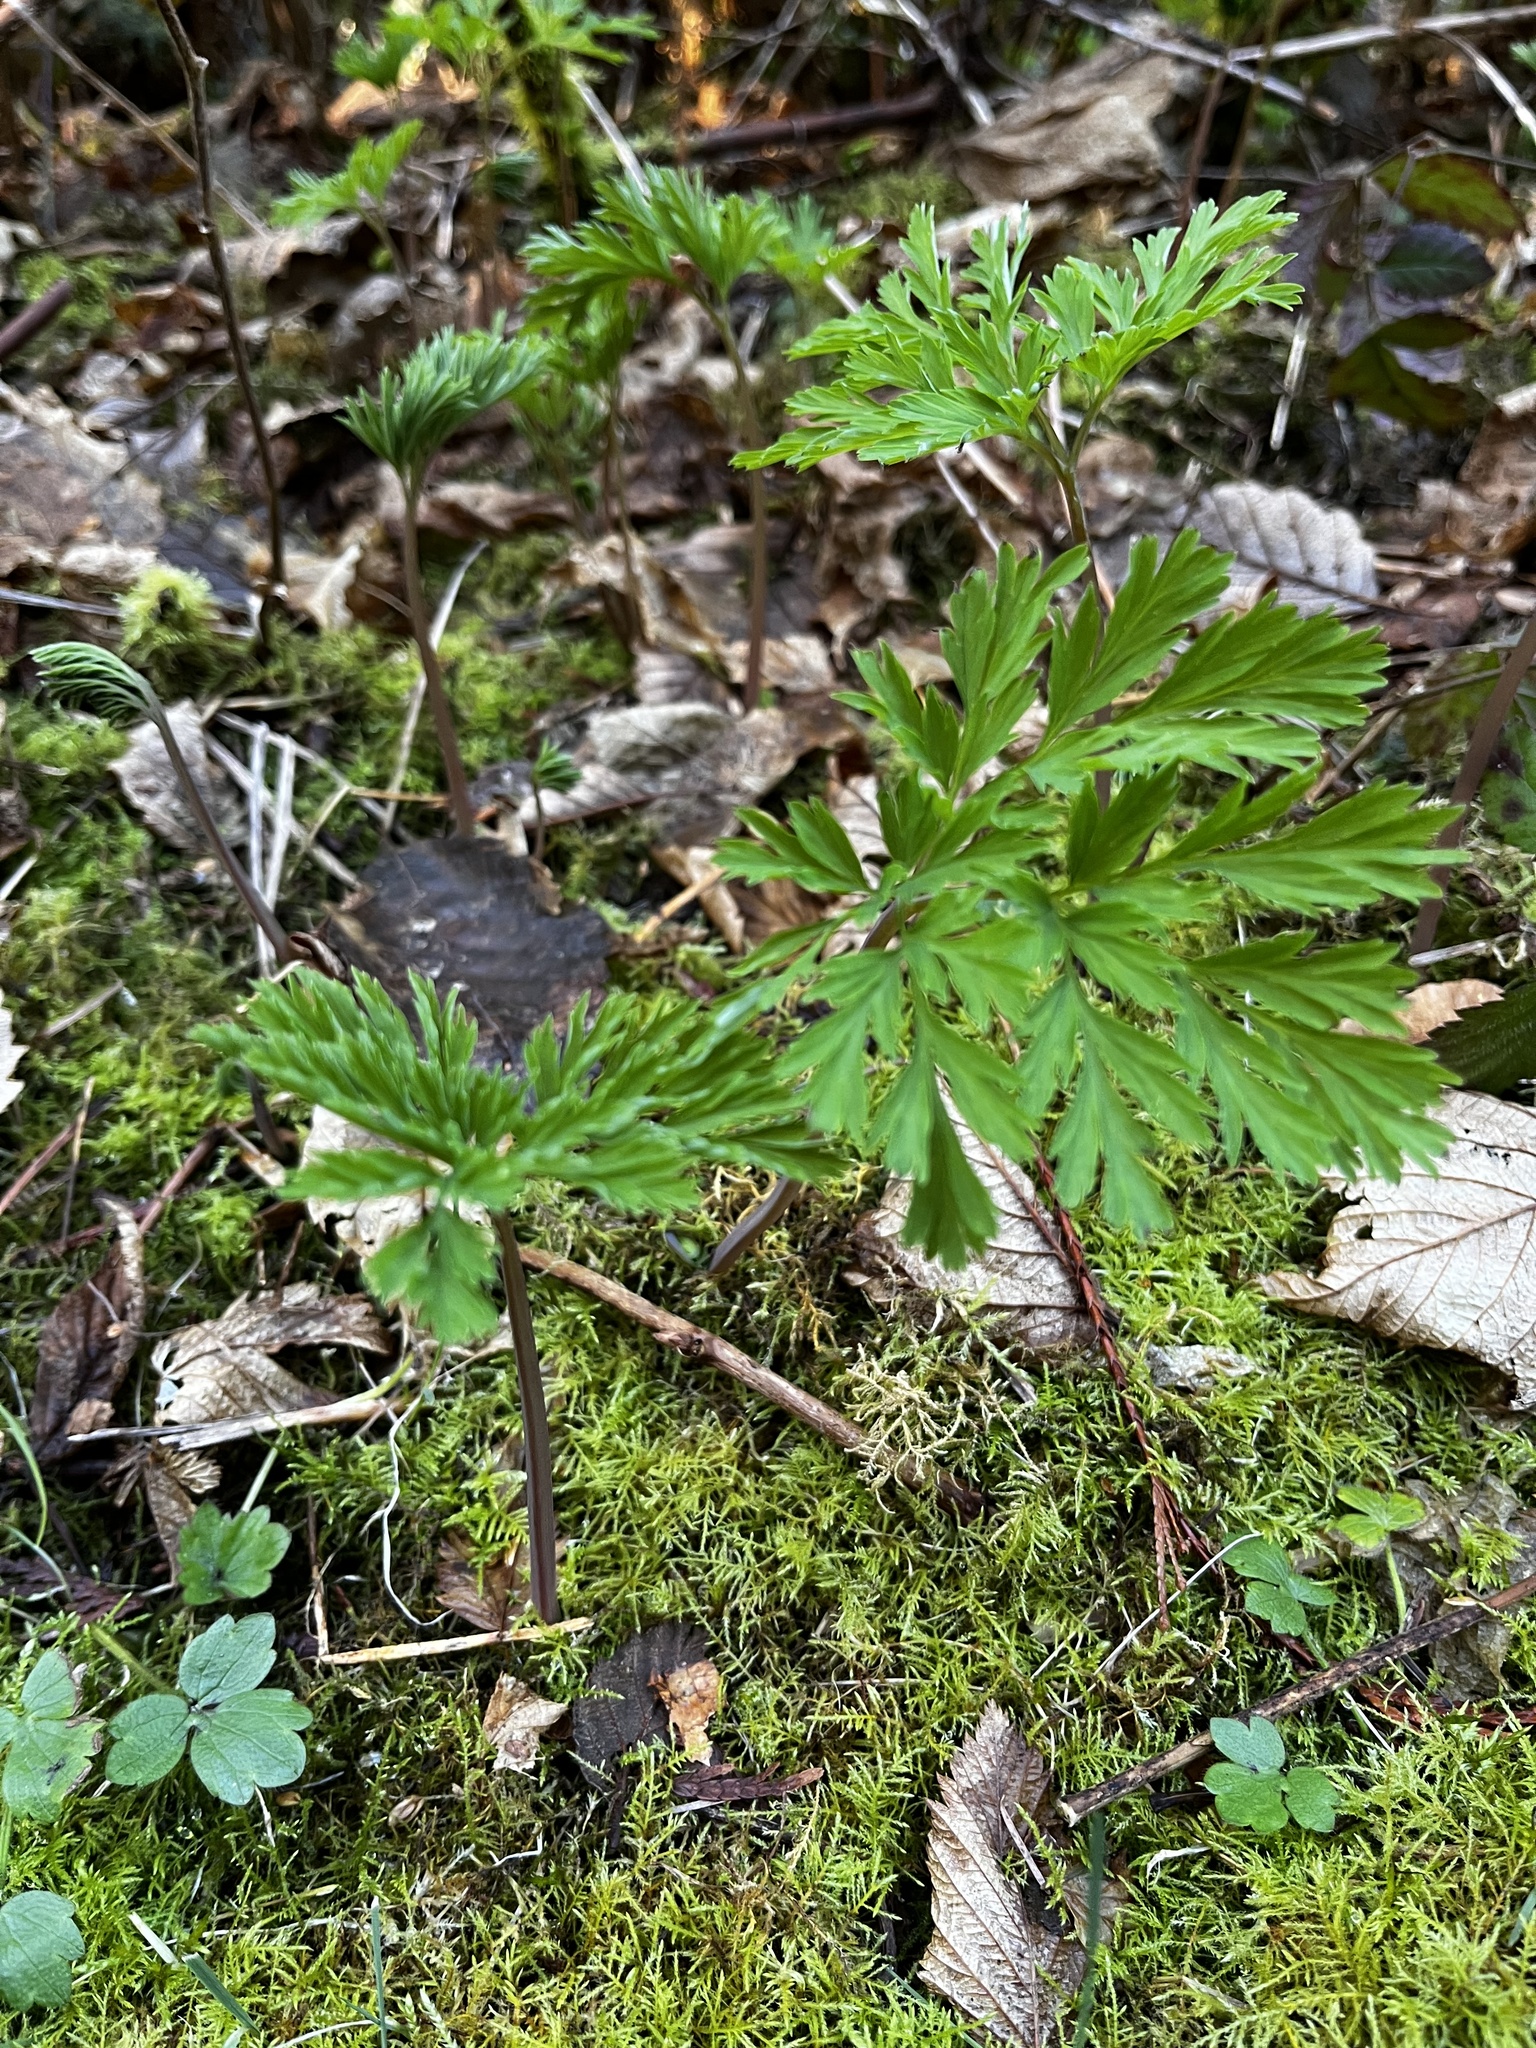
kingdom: Plantae
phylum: Tracheophyta
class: Magnoliopsida
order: Ranunculales
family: Papaveraceae
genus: Dicentra
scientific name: Dicentra formosa
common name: Bleeding-heart
